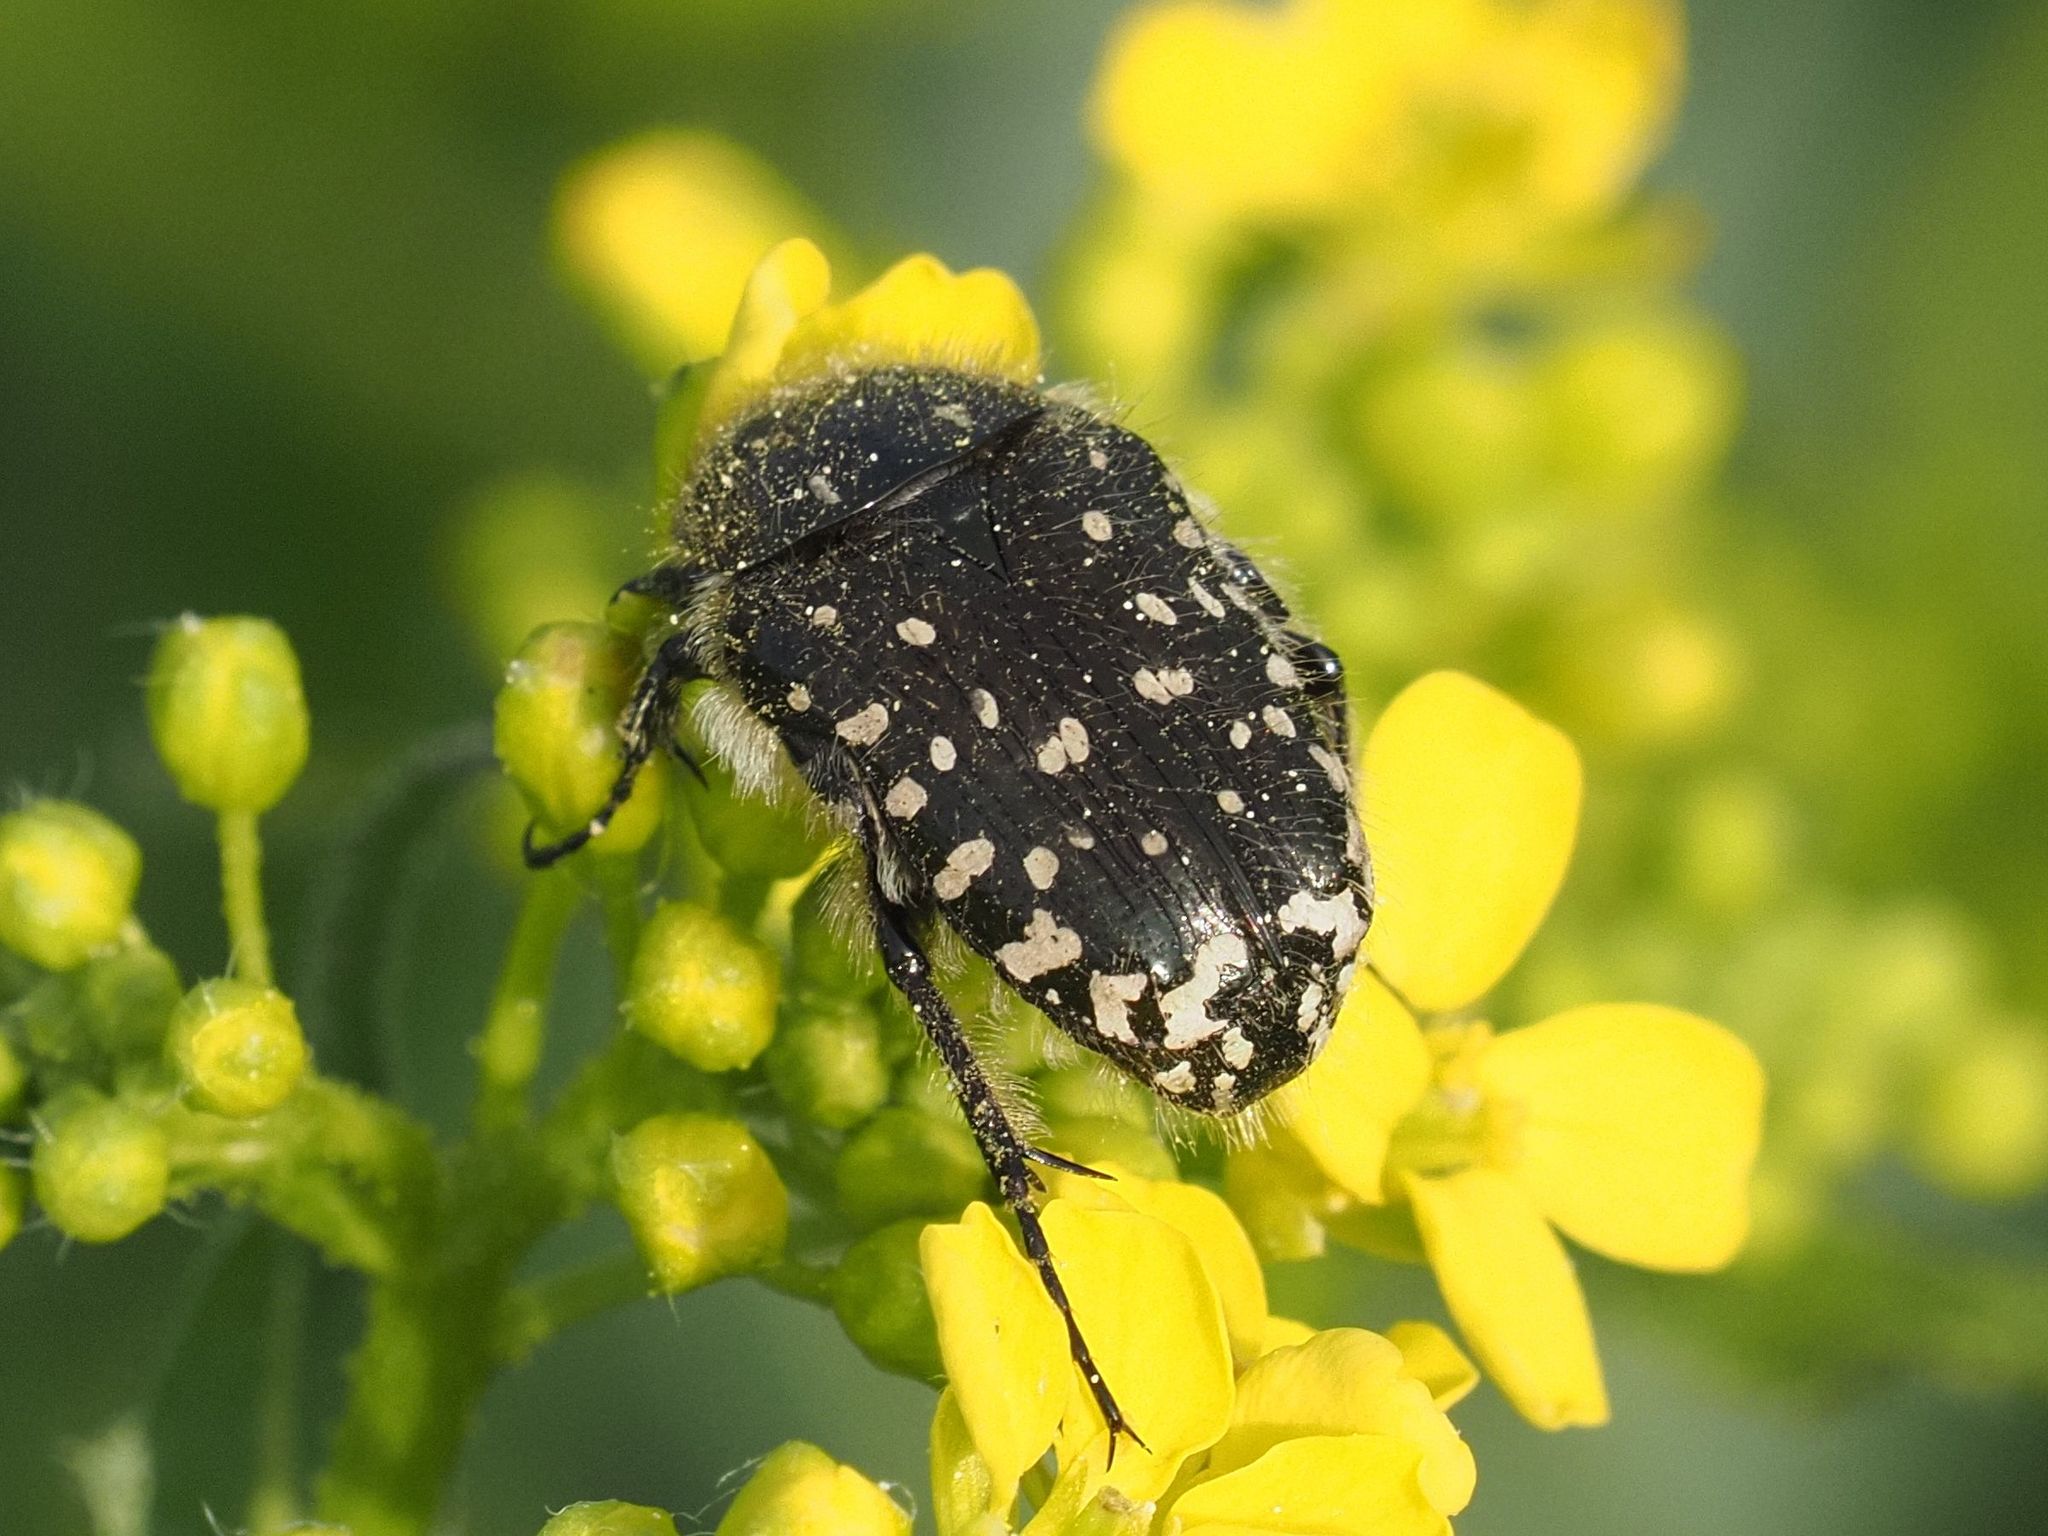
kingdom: Animalia
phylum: Arthropoda
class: Insecta
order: Coleoptera
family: Scarabaeidae
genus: Oxythyrea
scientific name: Oxythyrea funesta
